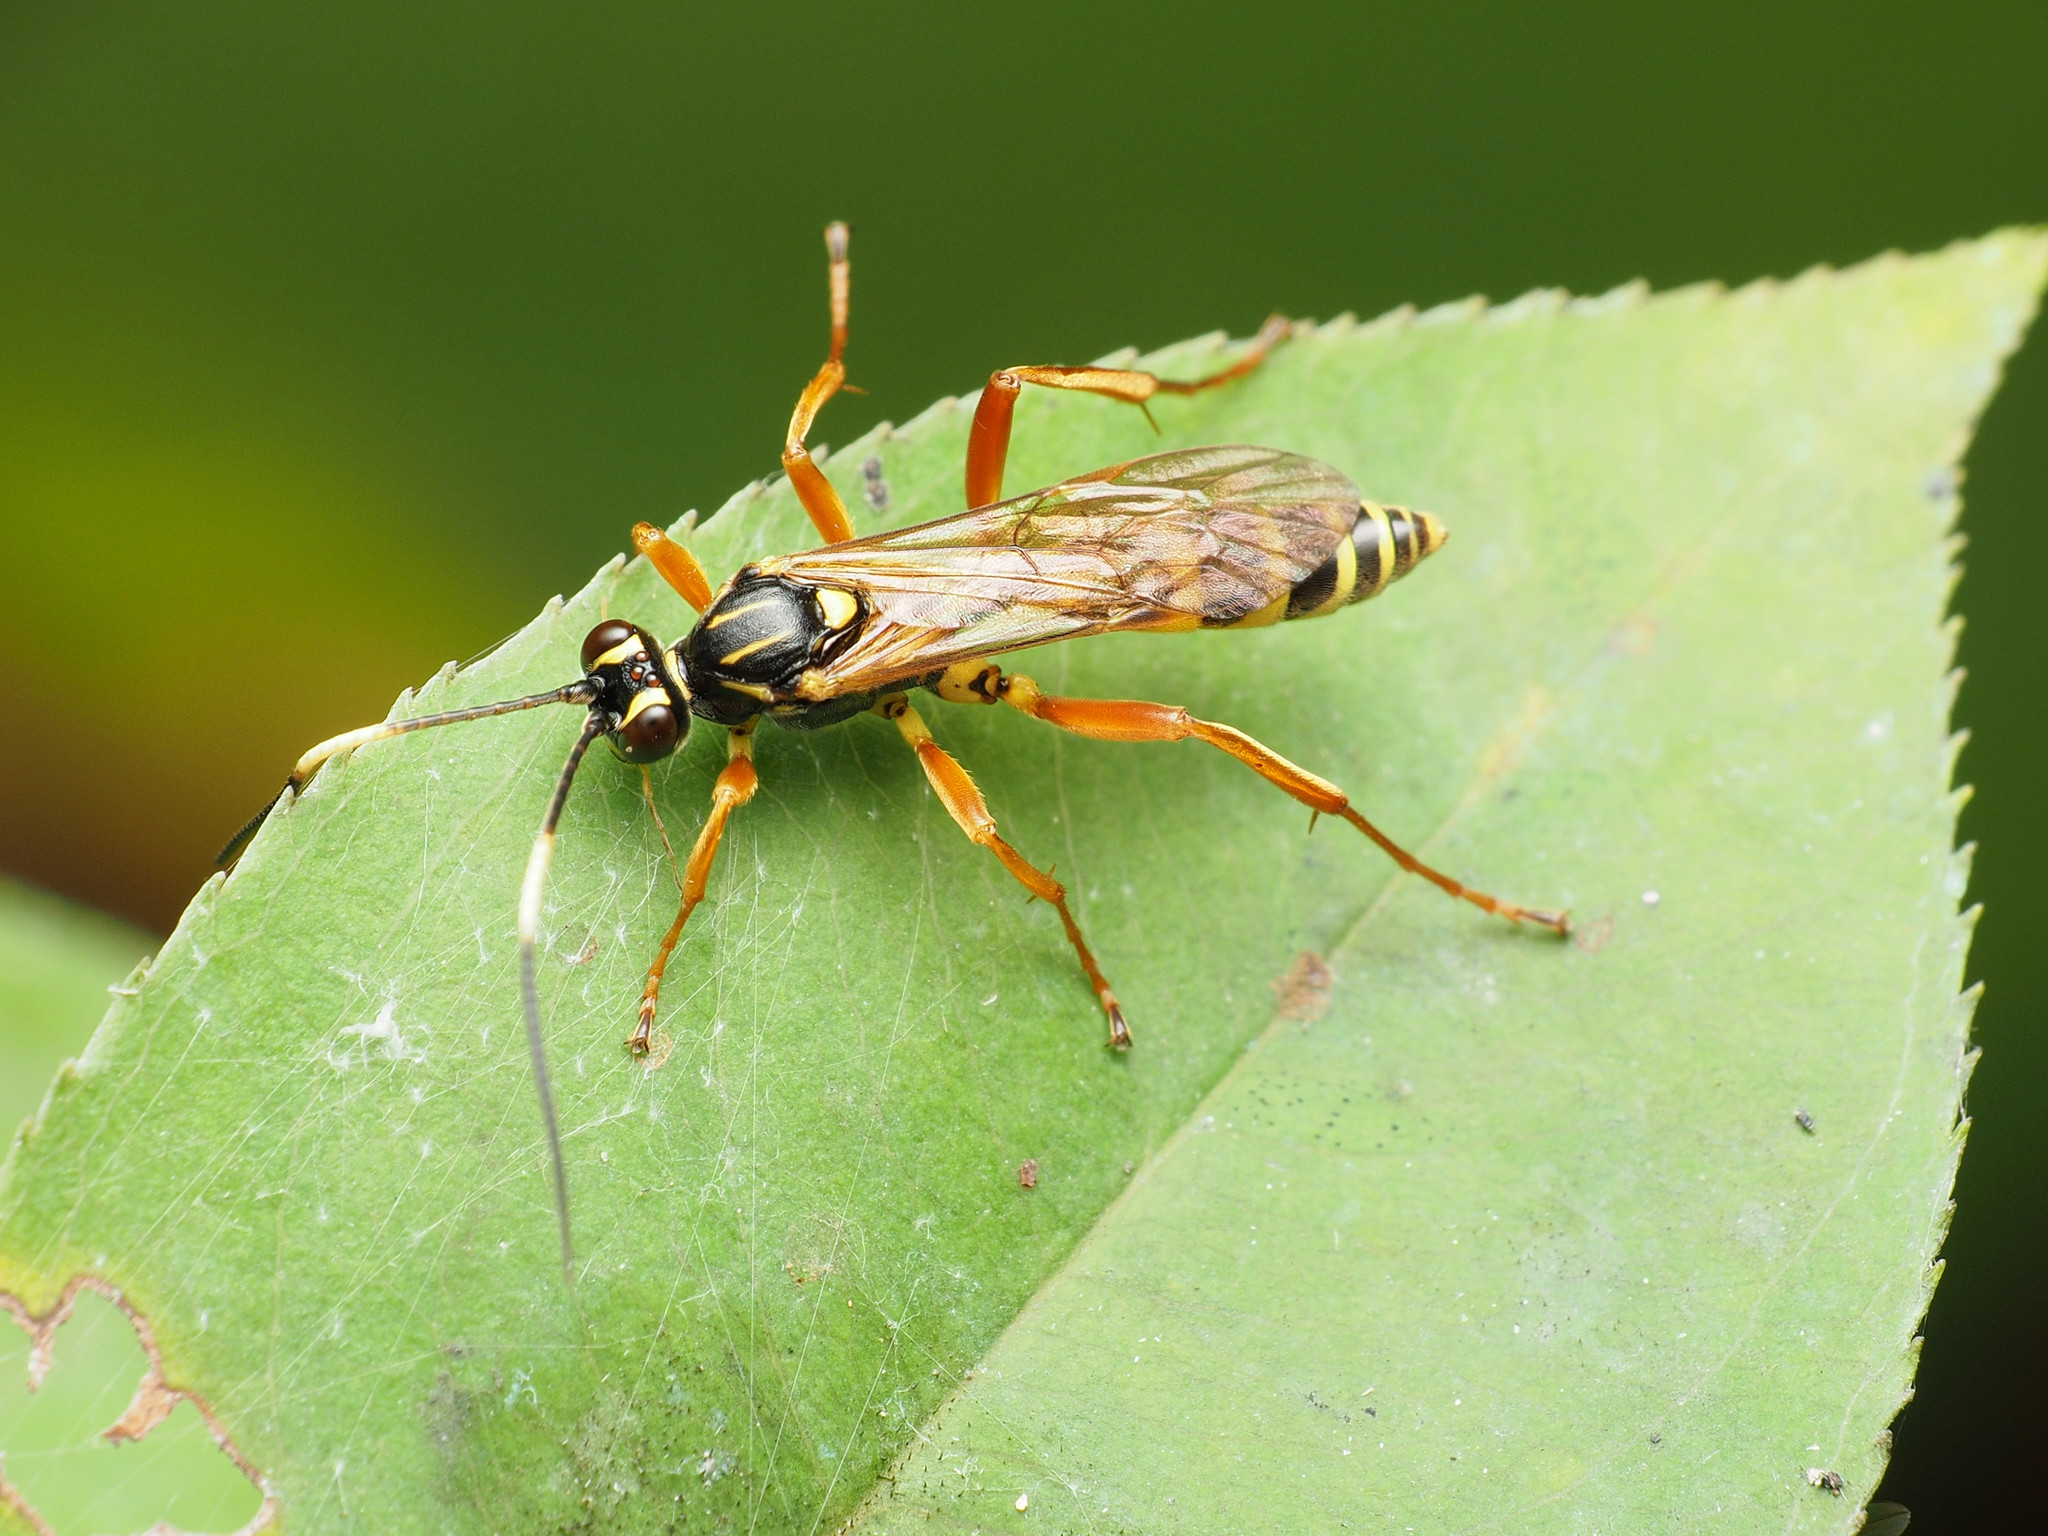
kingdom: Animalia
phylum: Arthropoda
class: Insecta
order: Hymenoptera
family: Ichneumonidae
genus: Setanta
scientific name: Setanta compta
